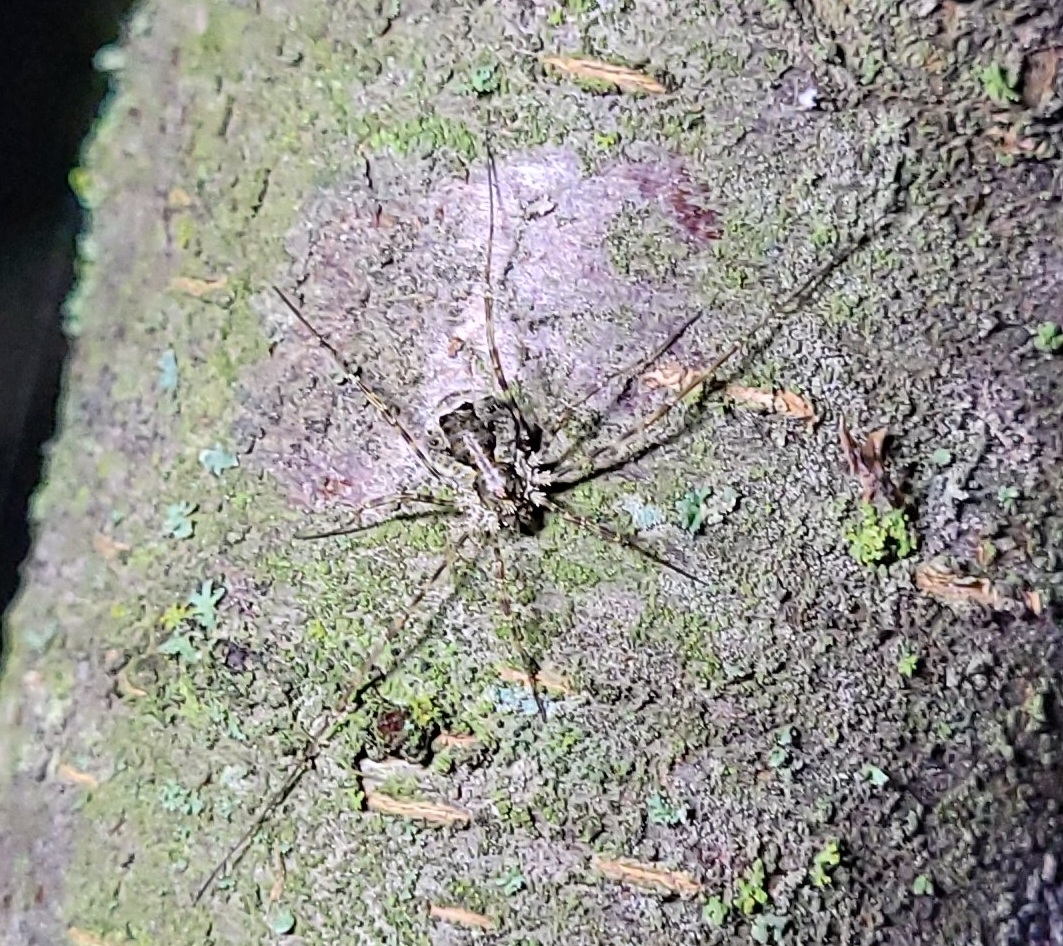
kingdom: Animalia
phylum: Arthropoda
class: Arachnida
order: Opiliones
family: Phalangiidae
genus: Lacinius
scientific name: Lacinius dentiger
